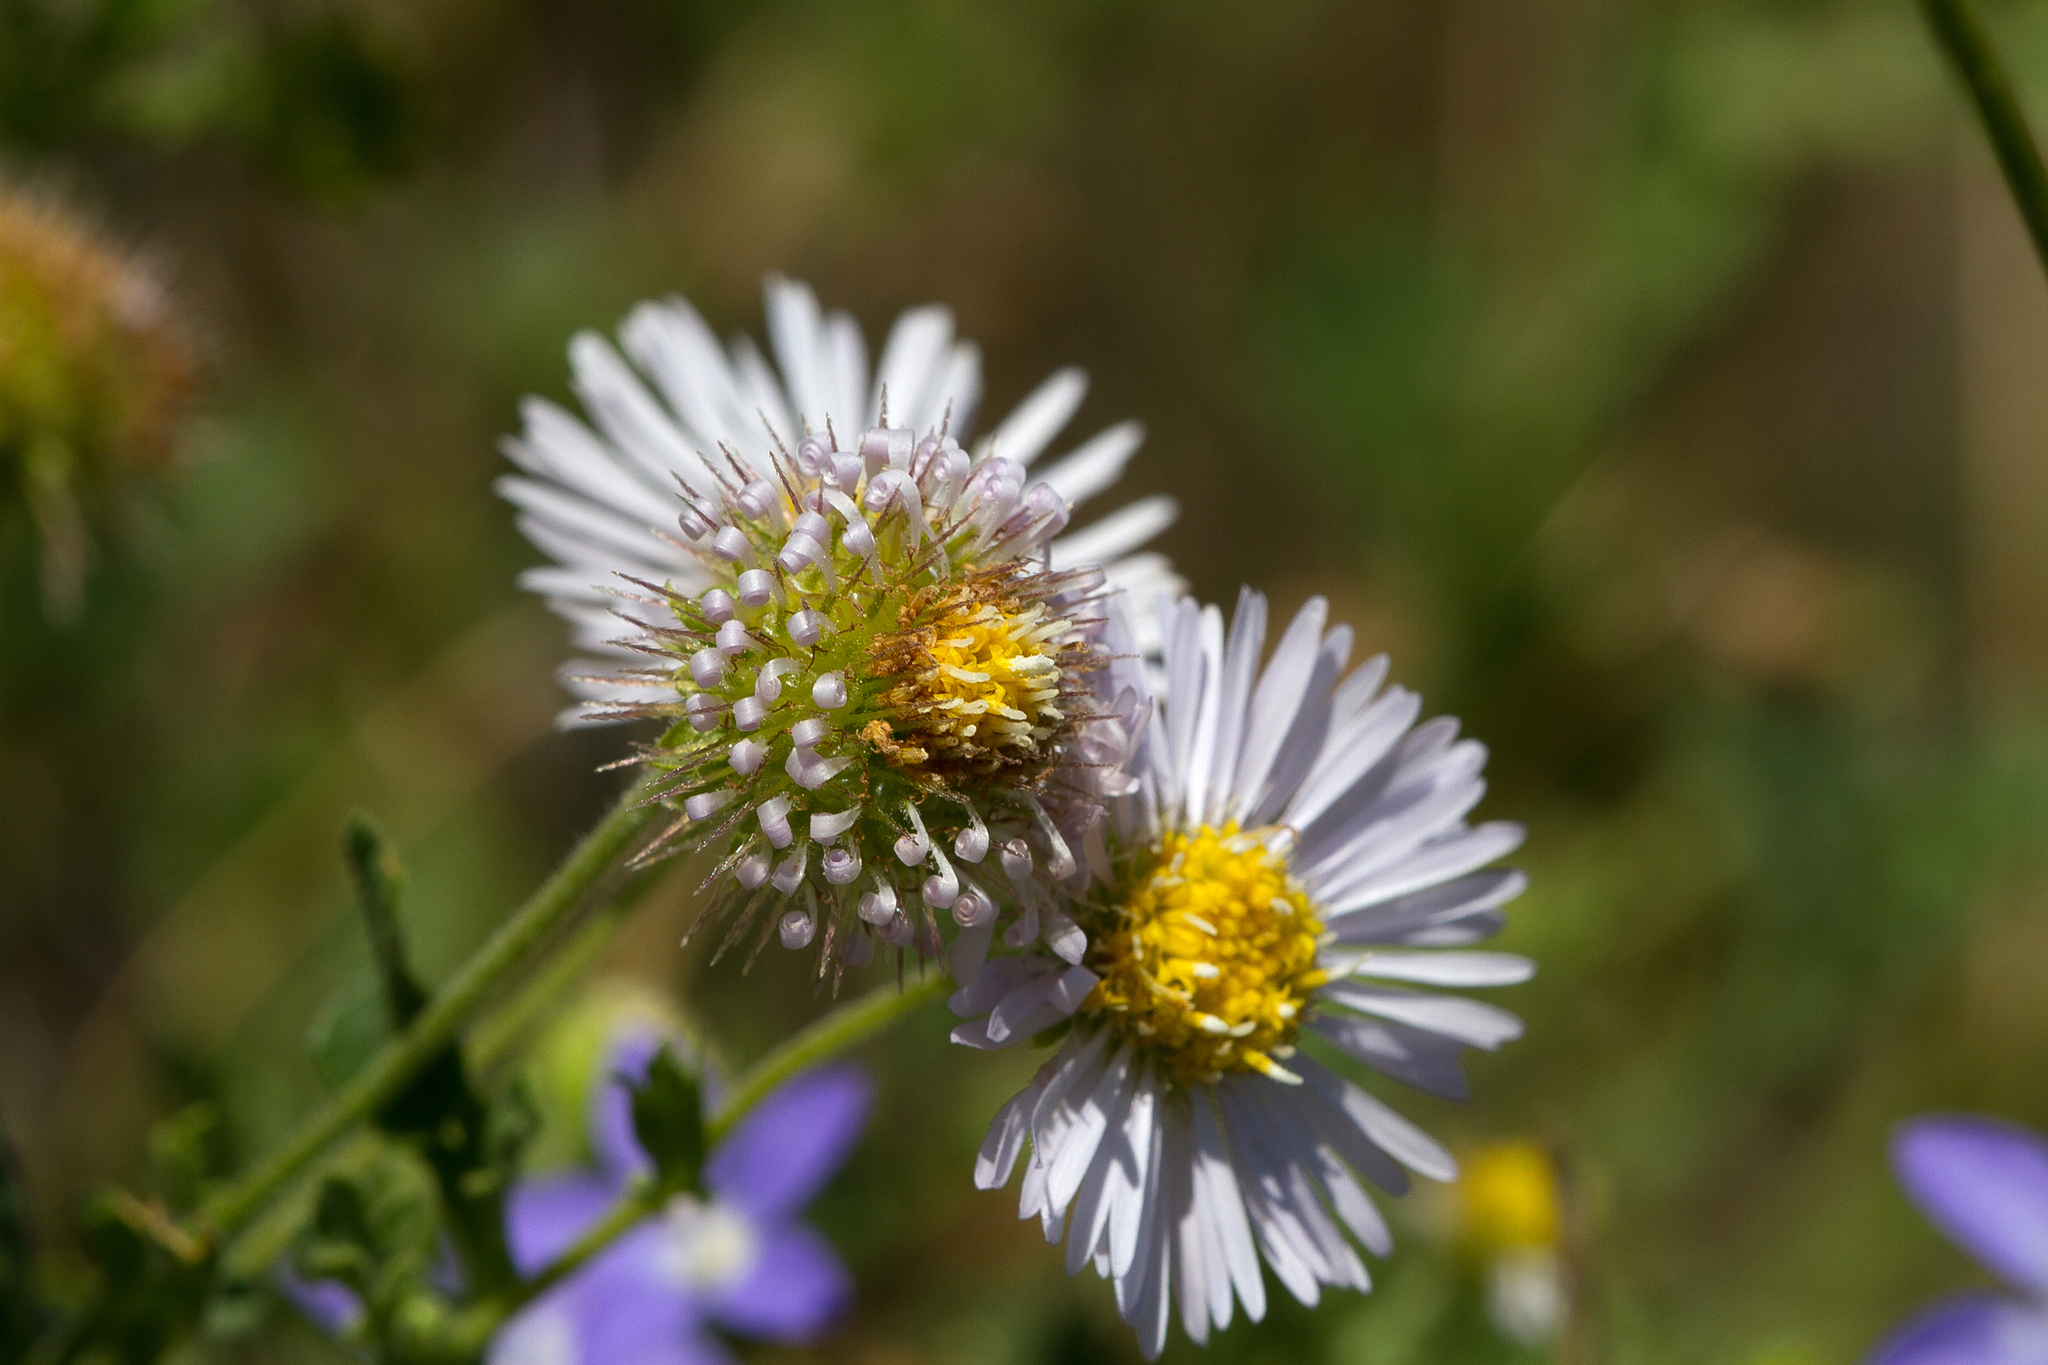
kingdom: Plantae
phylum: Tracheophyta
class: Magnoliopsida
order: Asterales
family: Asteraceae
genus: Calotis
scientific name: Calotis cuneifolia
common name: Bur-daisy
